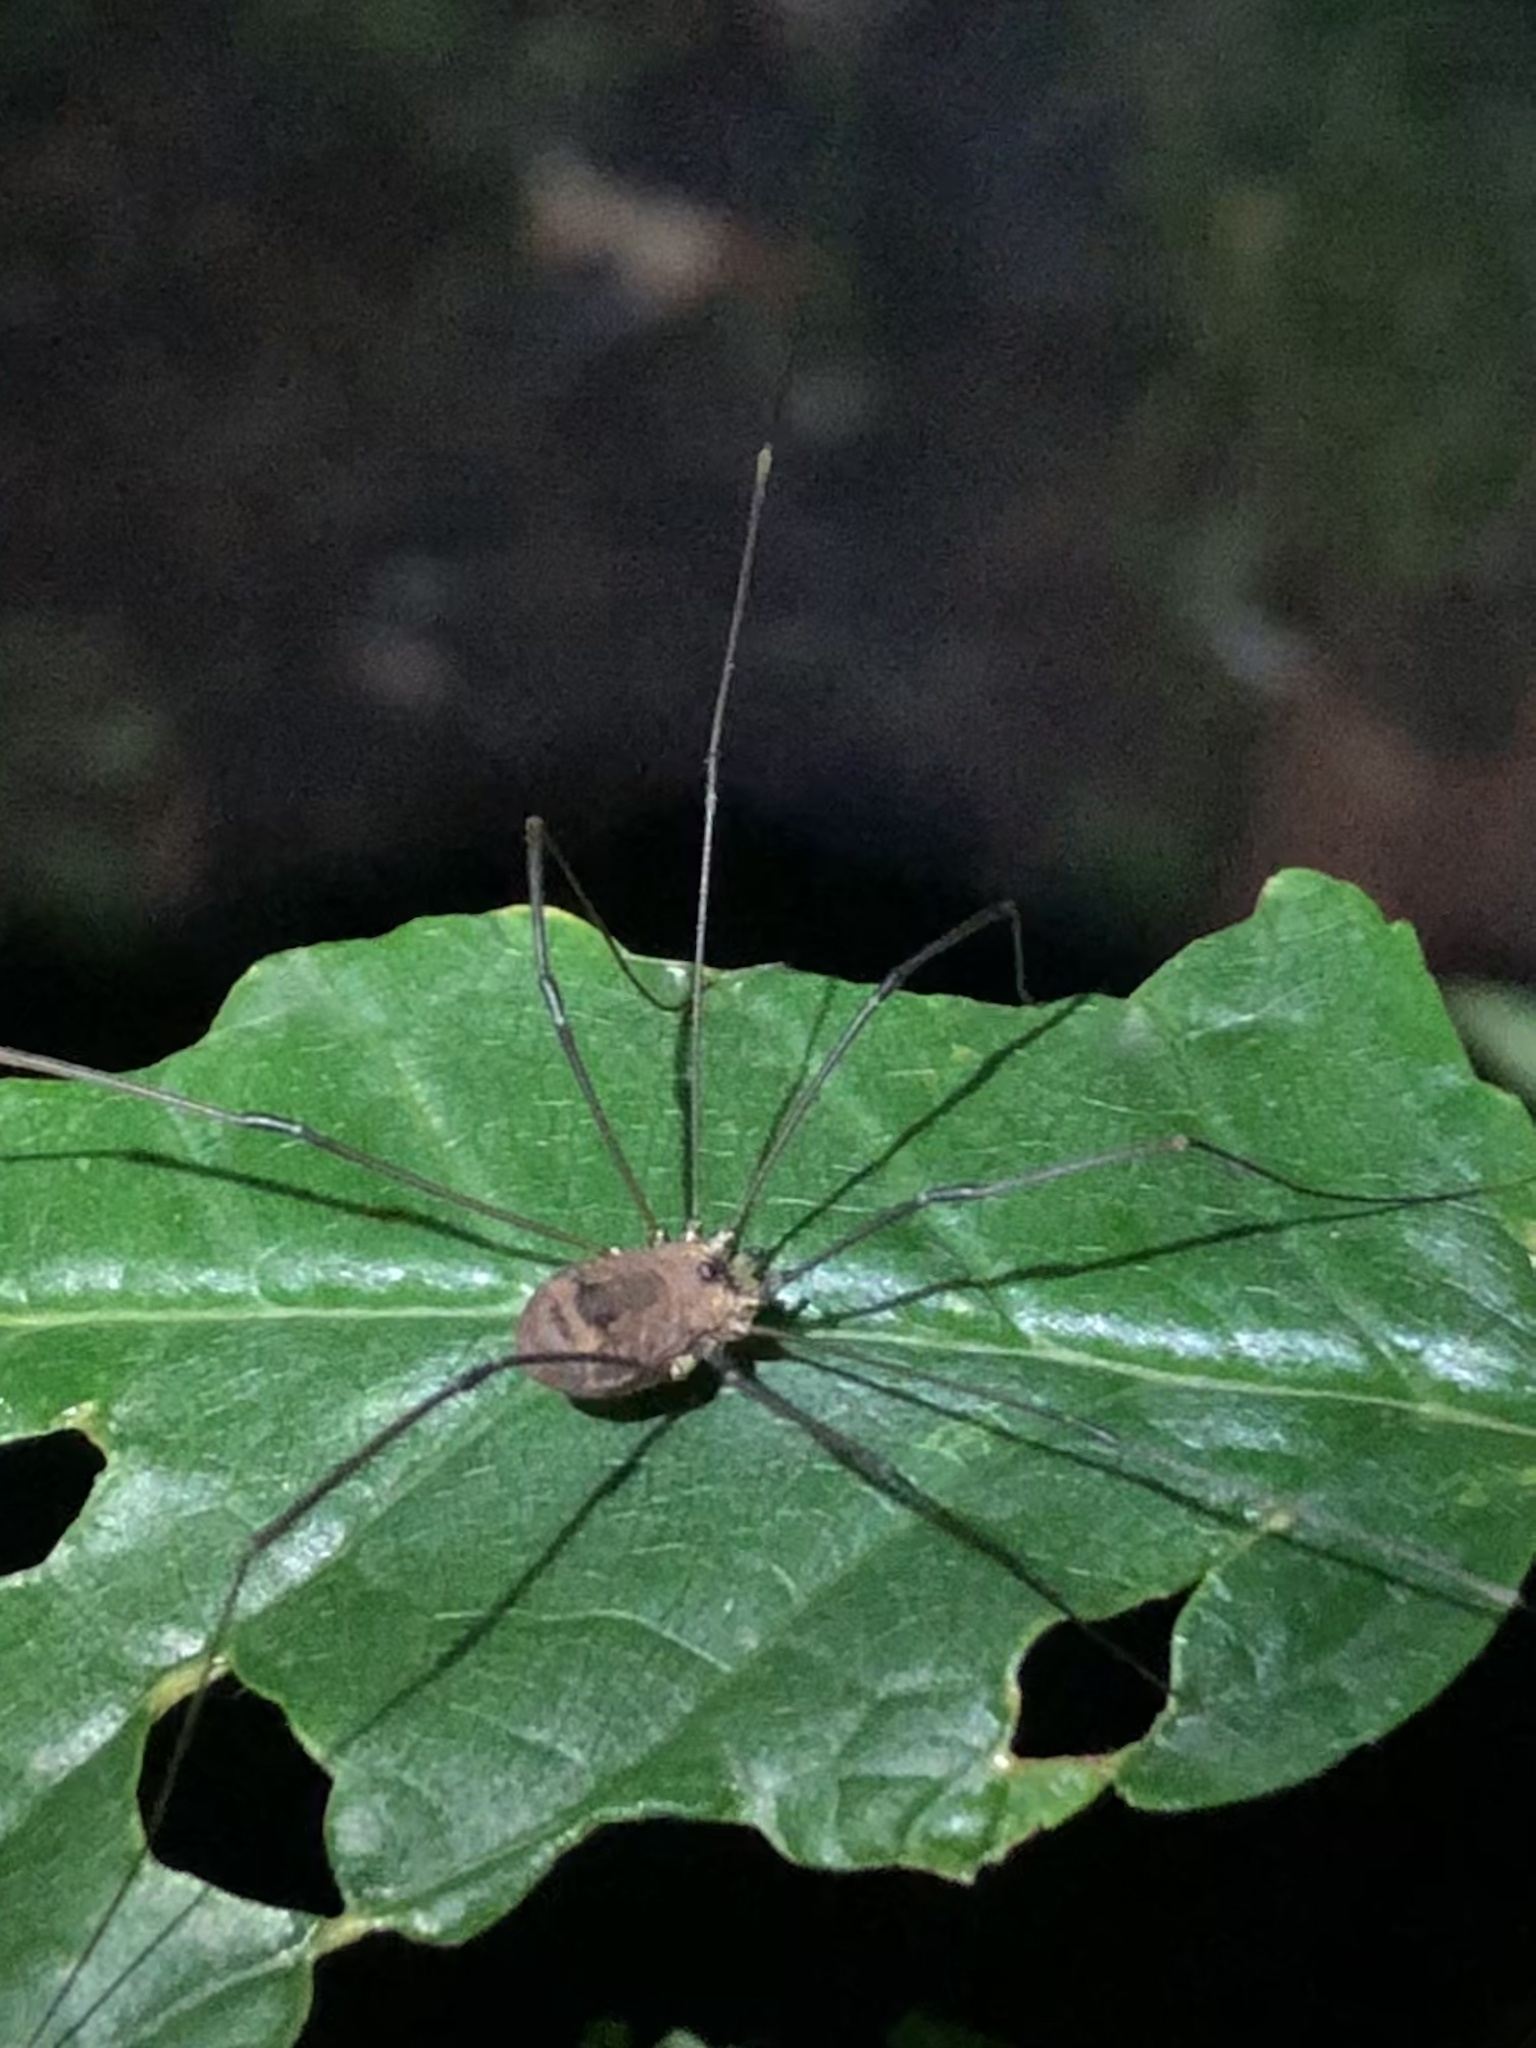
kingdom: Animalia
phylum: Arthropoda
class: Arachnida
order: Opiliones
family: Sclerosomatidae
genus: Leiobunum
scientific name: Leiobunum rotundum
